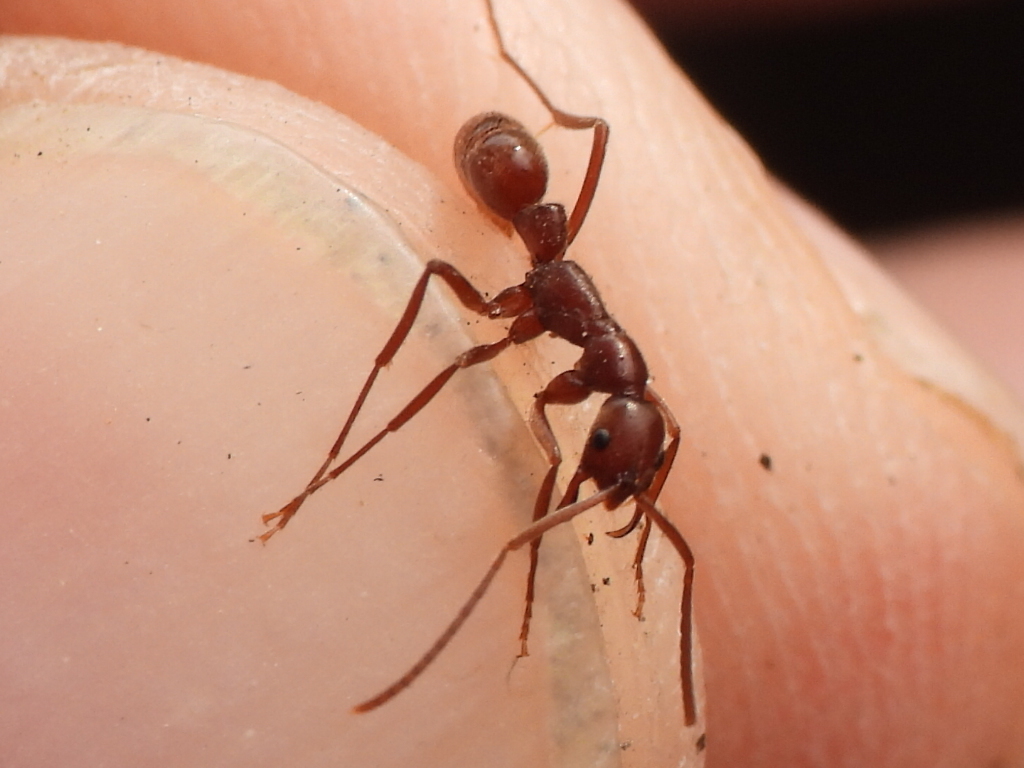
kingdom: Animalia
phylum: Arthropoda
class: Insecta
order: Hymenoptera
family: Formicidae
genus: Leptogenys
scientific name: Leptogenys elongata
